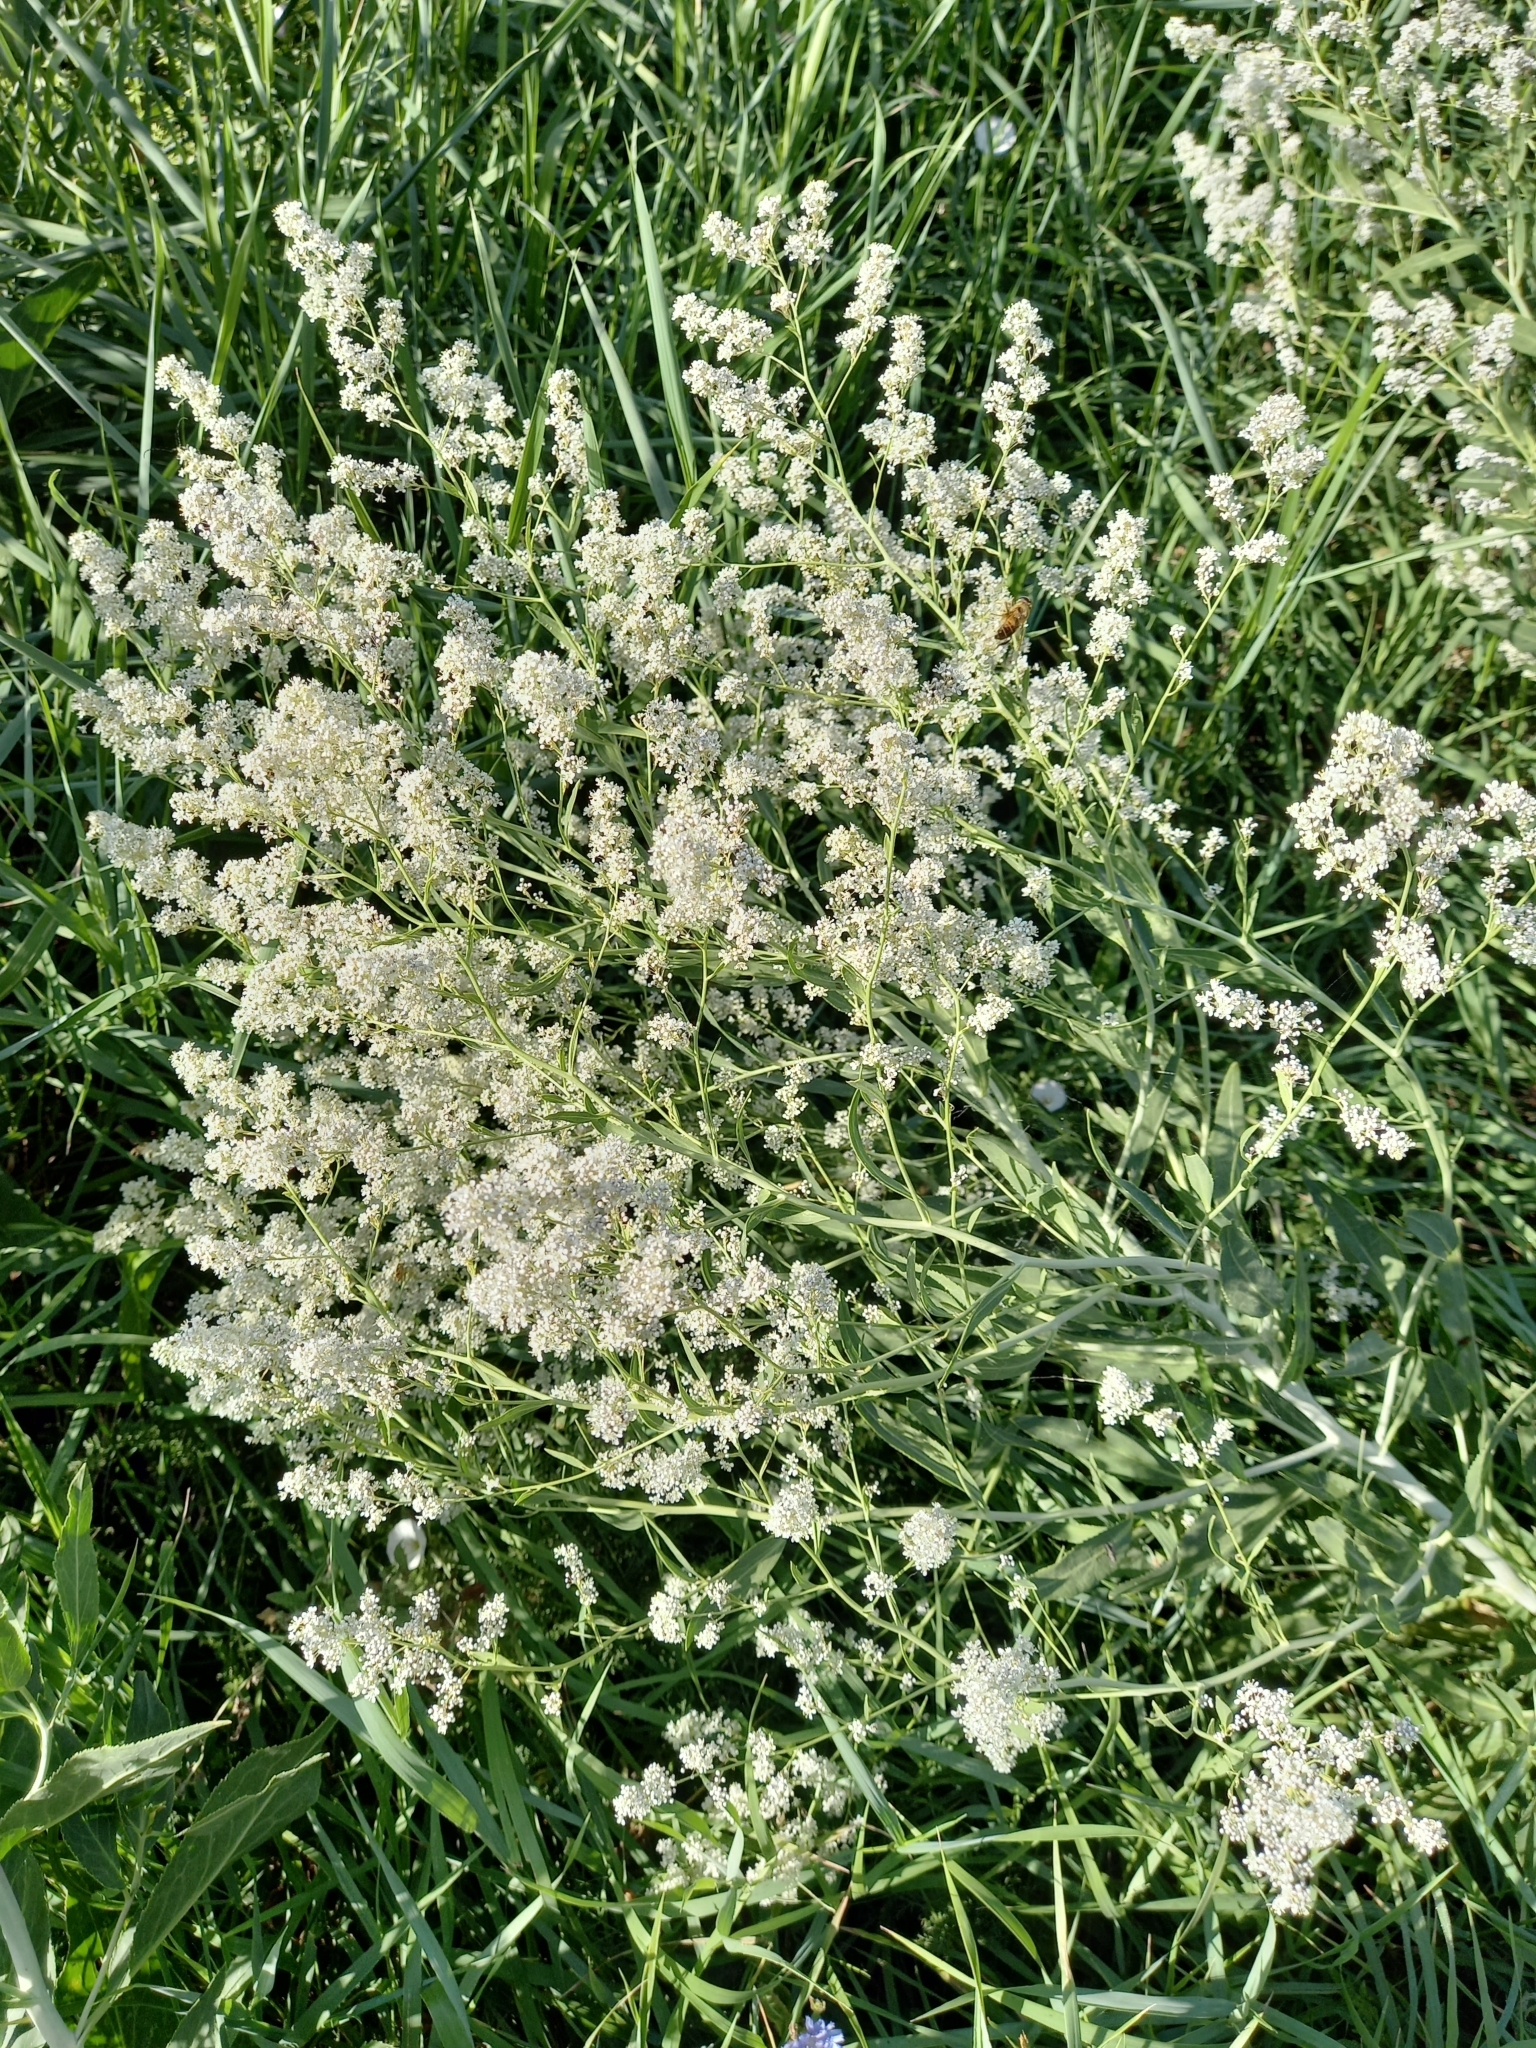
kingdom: Plantae
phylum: Tracheophyta
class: Magnoliopsida
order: Brassicales
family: Brassicaceae
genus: Lepidium
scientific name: Lepidium latifolium
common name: Dittander
